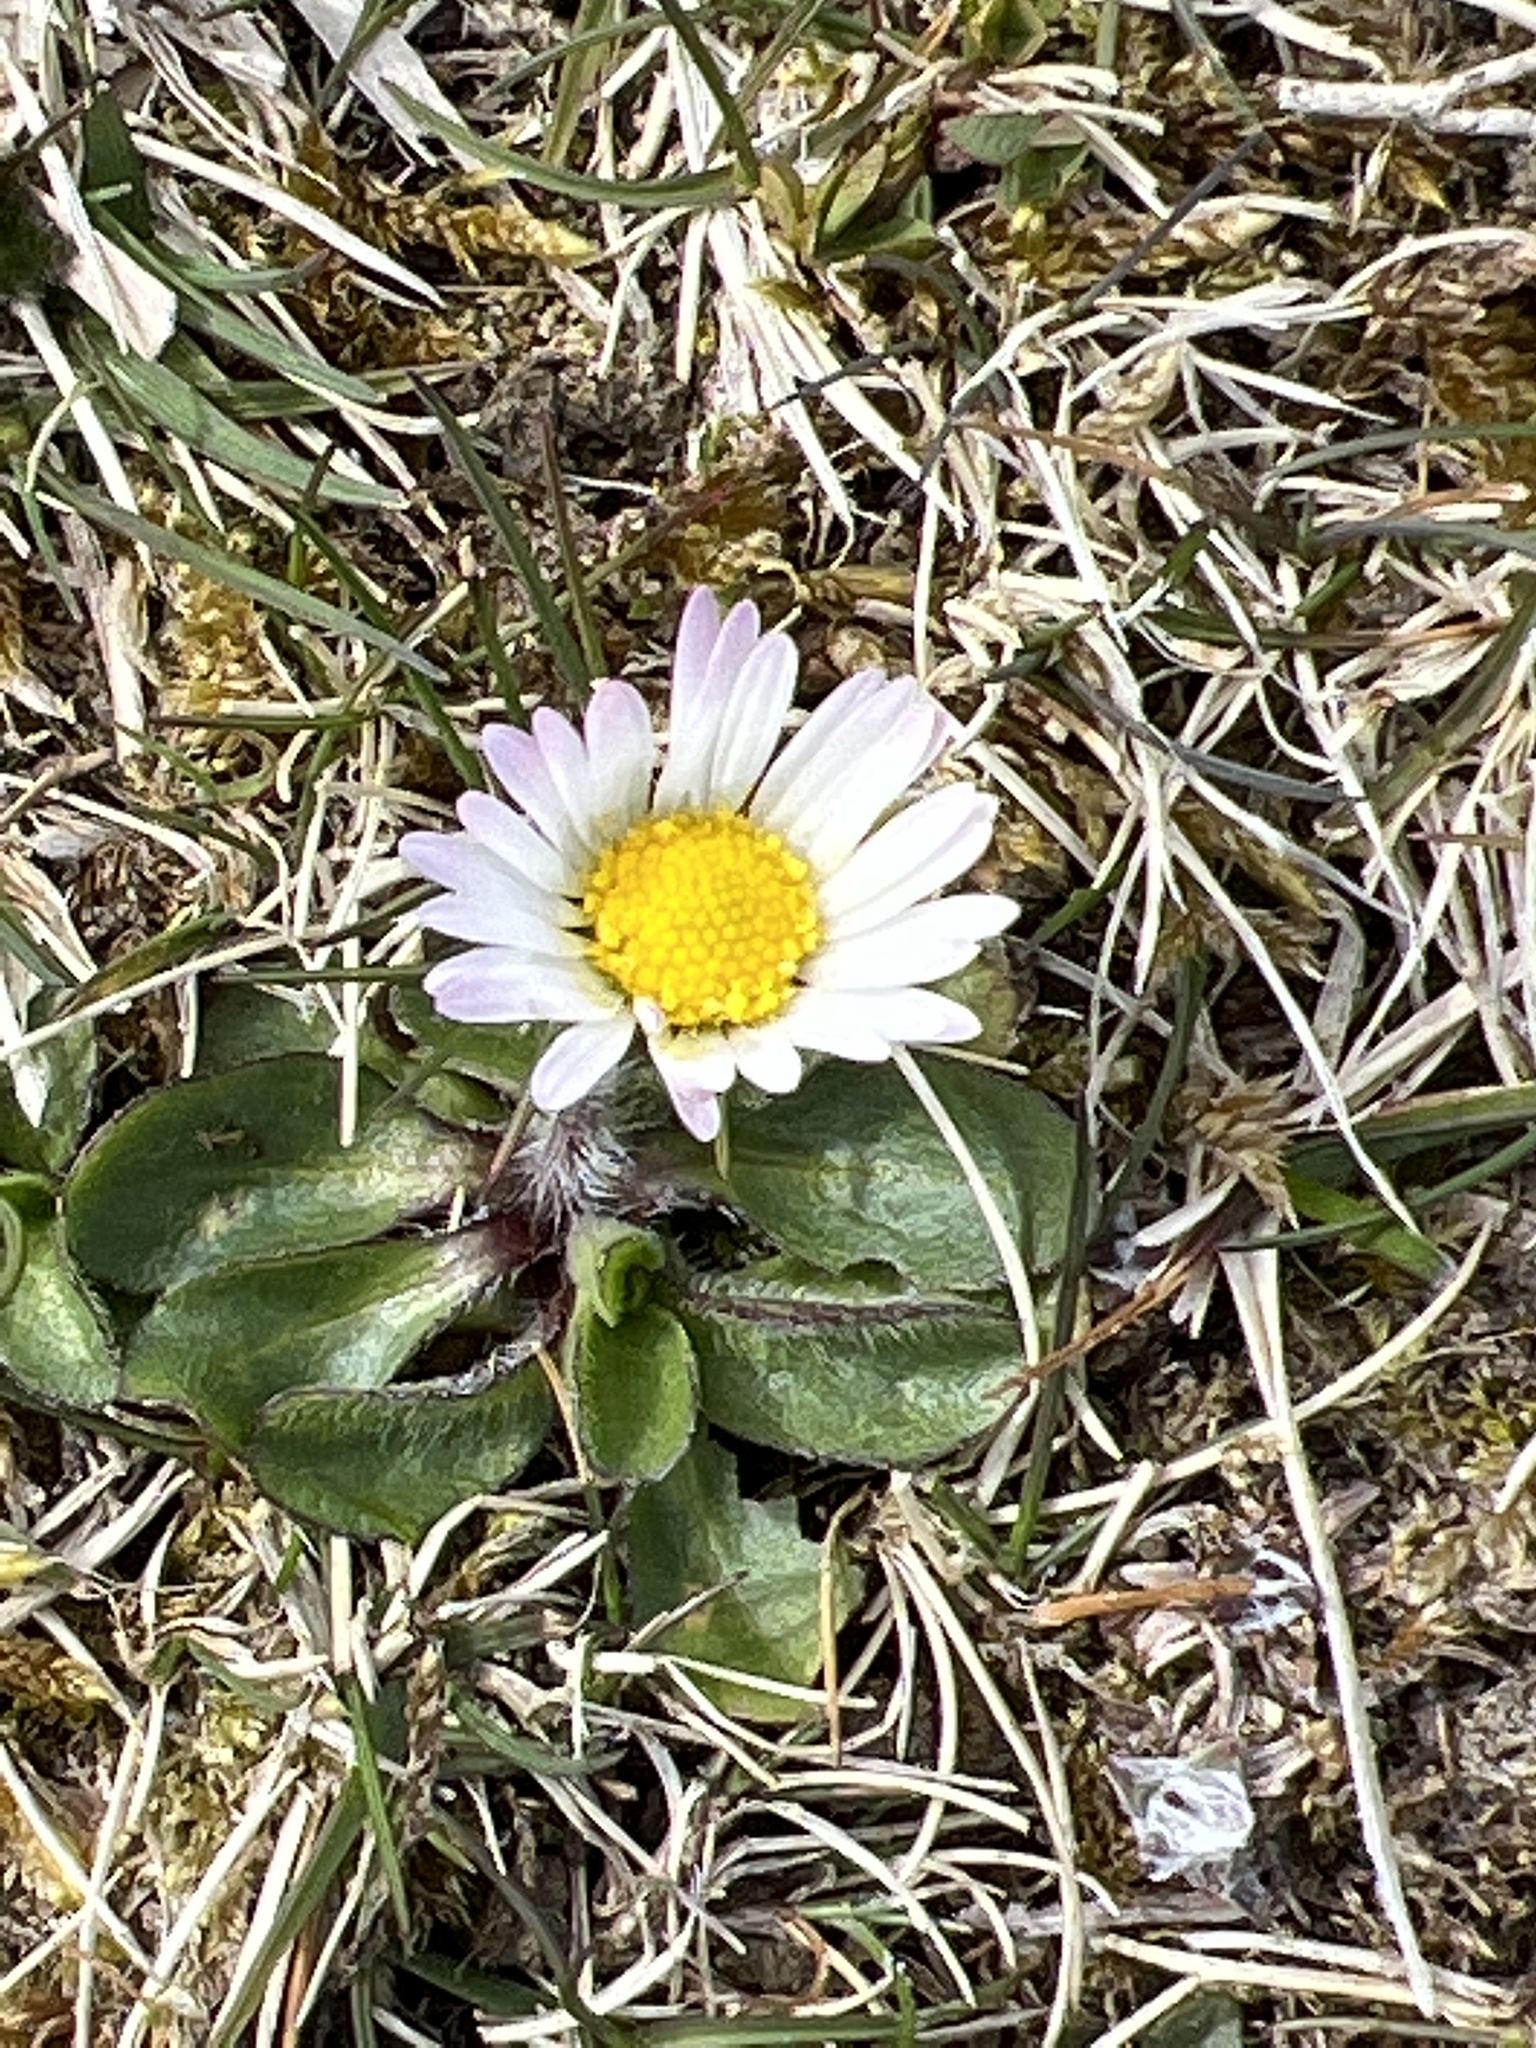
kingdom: Plantae
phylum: Tracheophyta
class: Magnoliopsida
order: Asterales
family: Asteraceae
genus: Bellis
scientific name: Bellis perennis
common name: Lawndaisy
